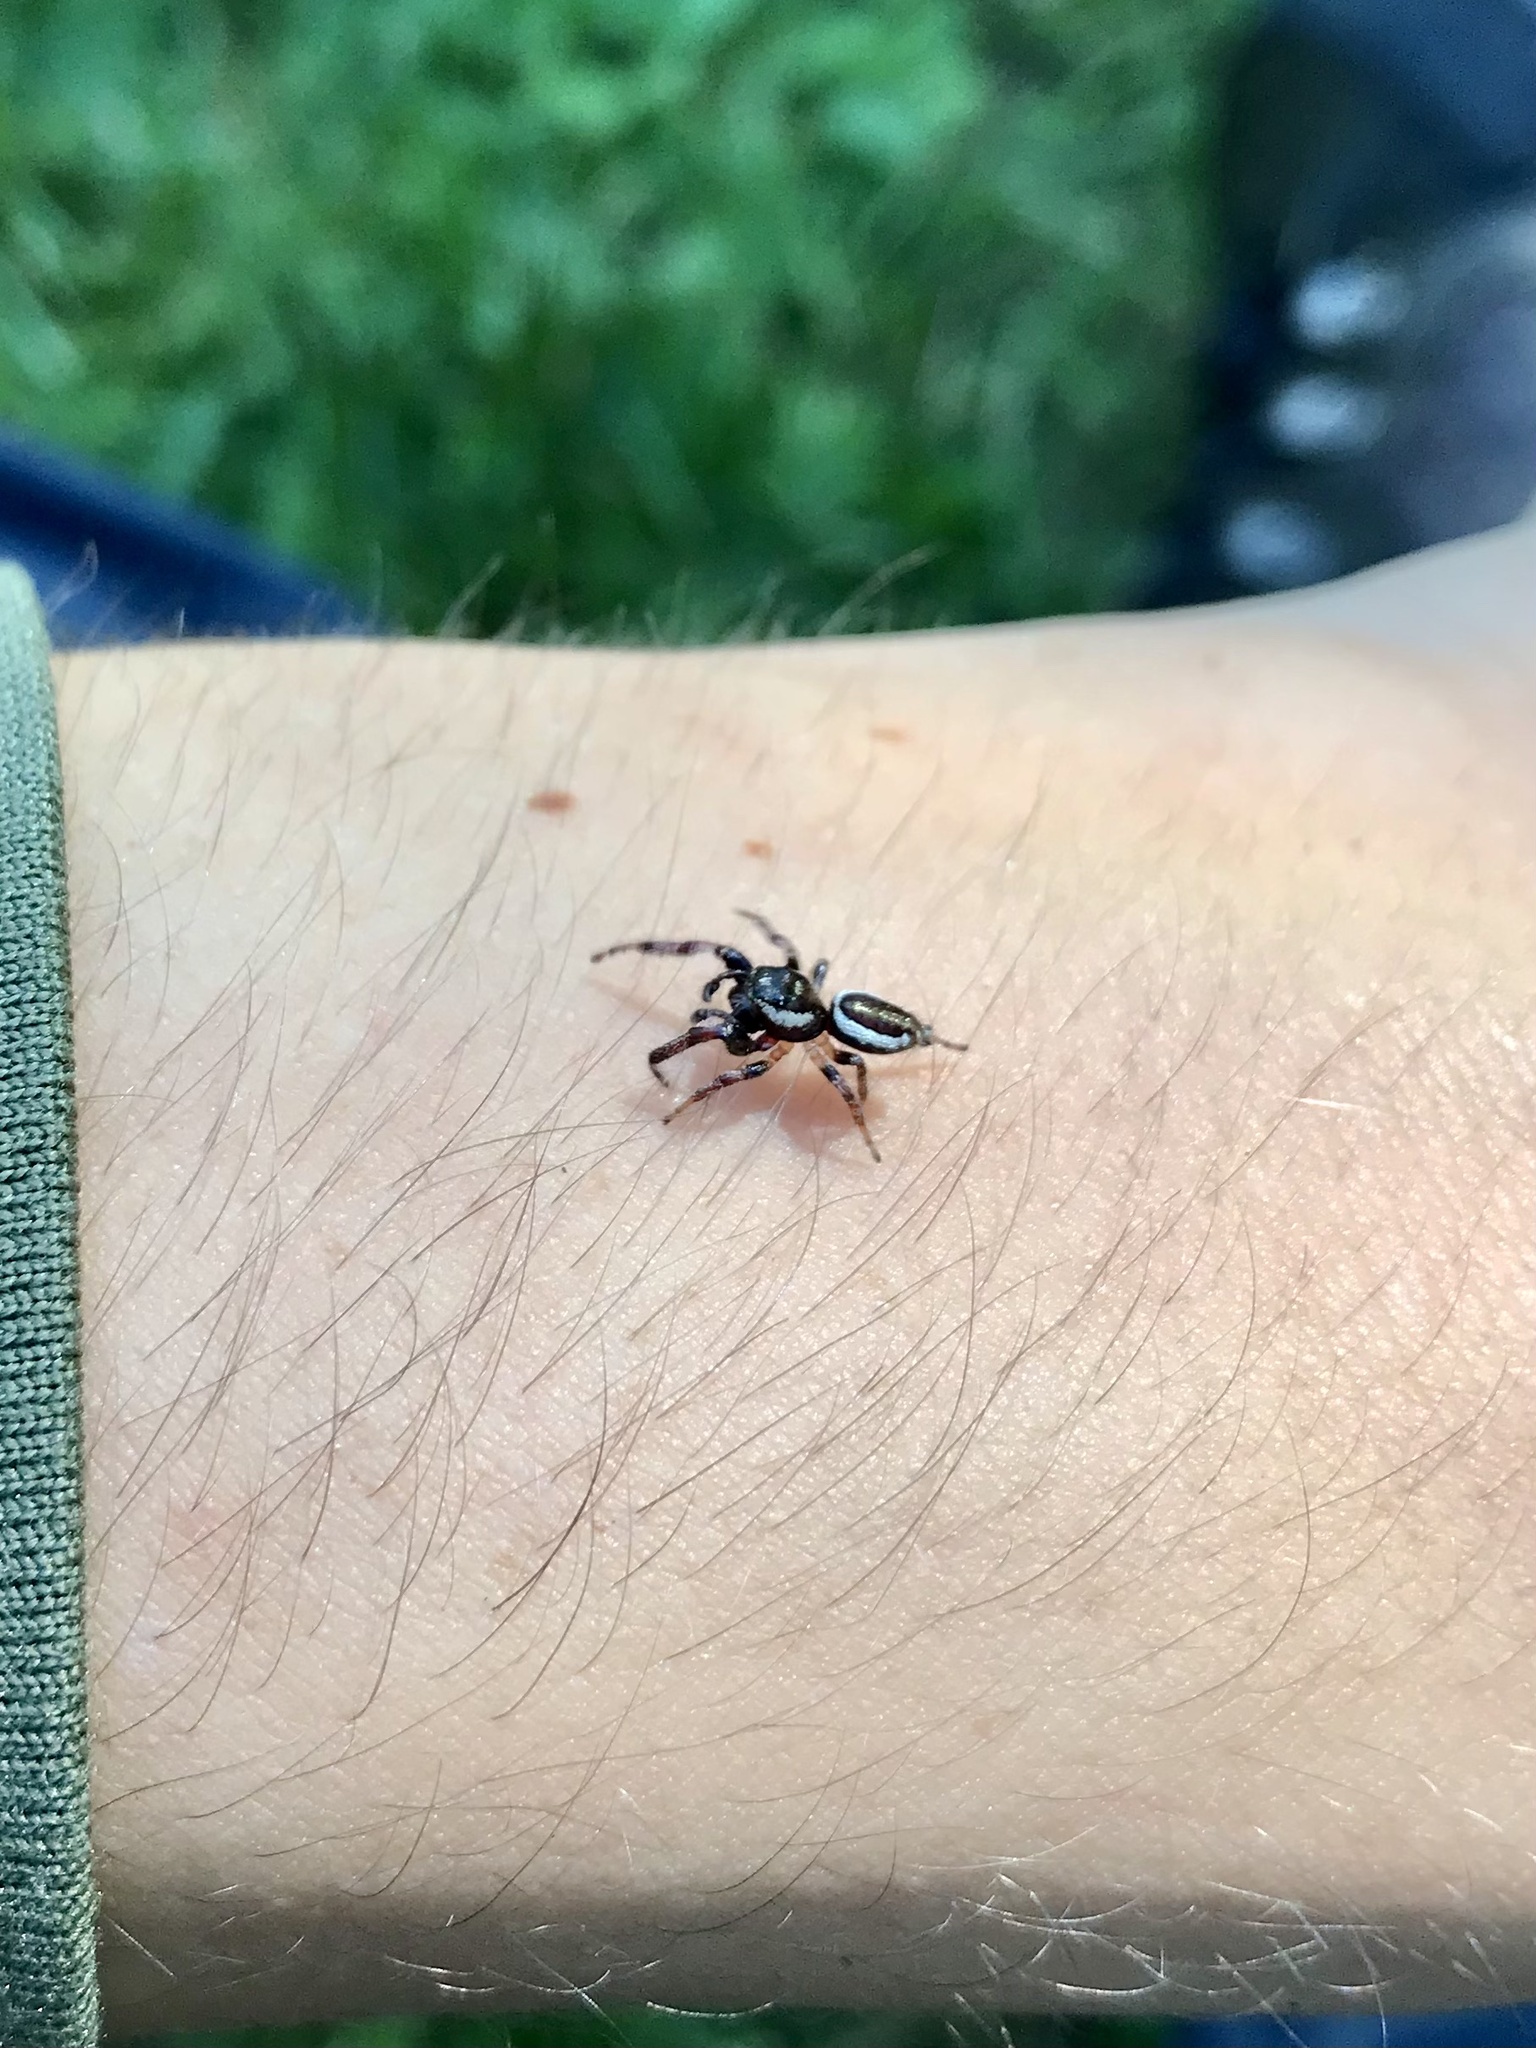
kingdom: Animalia
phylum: Arthropoda
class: Arachnida
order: Araneae
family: Salticidae
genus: Eris
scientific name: Eris militaris
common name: Bronze jumper
